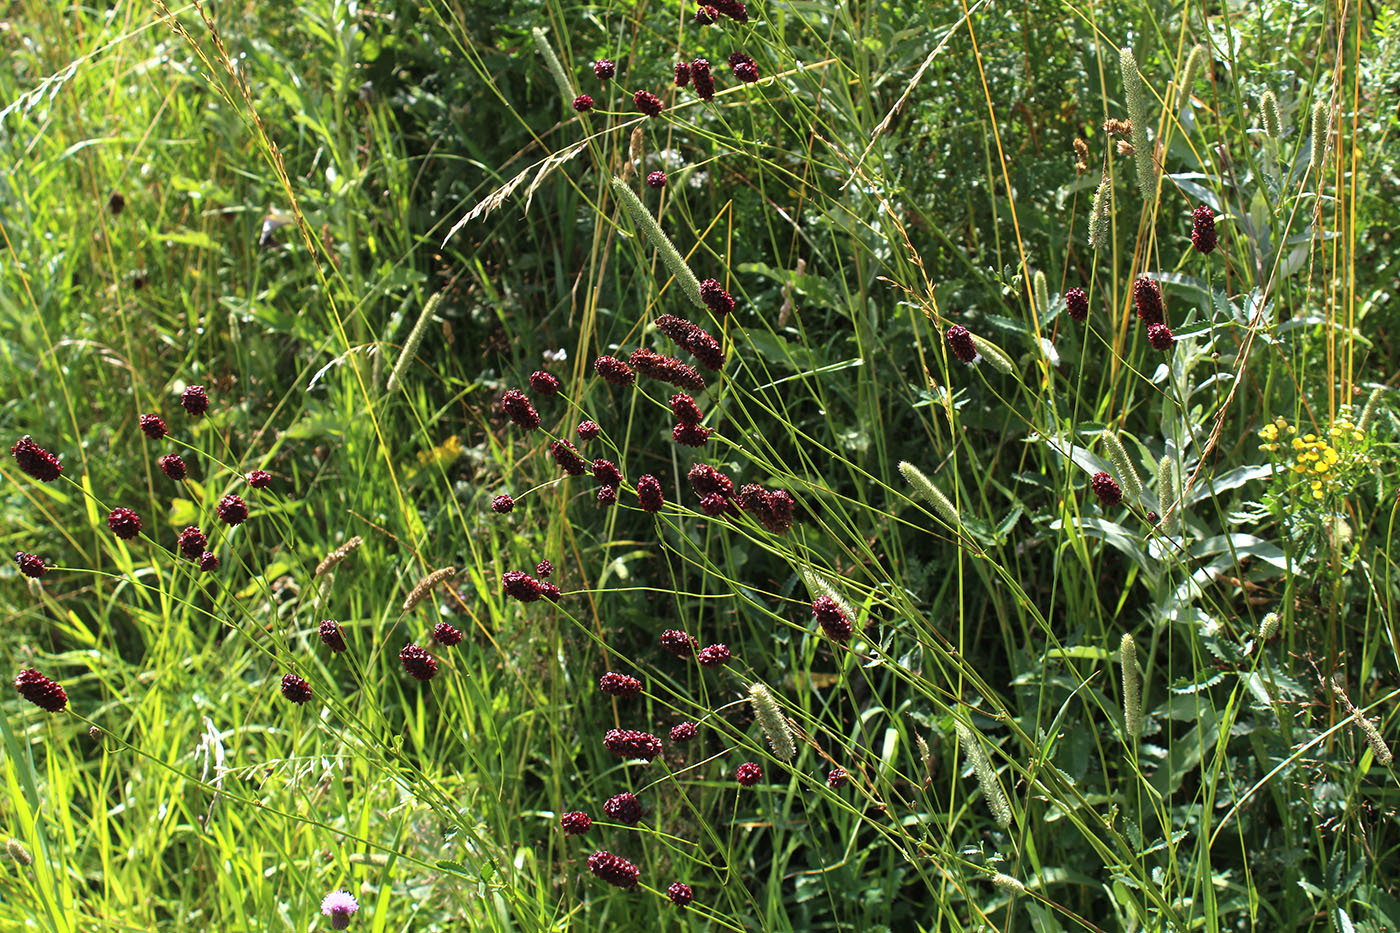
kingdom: Plantae
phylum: Tracheophyta
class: Magnoliopsida
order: Rosales
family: Rosaceae
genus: Sanguisorba
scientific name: Sanguisorba officinalis
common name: Great burnet
